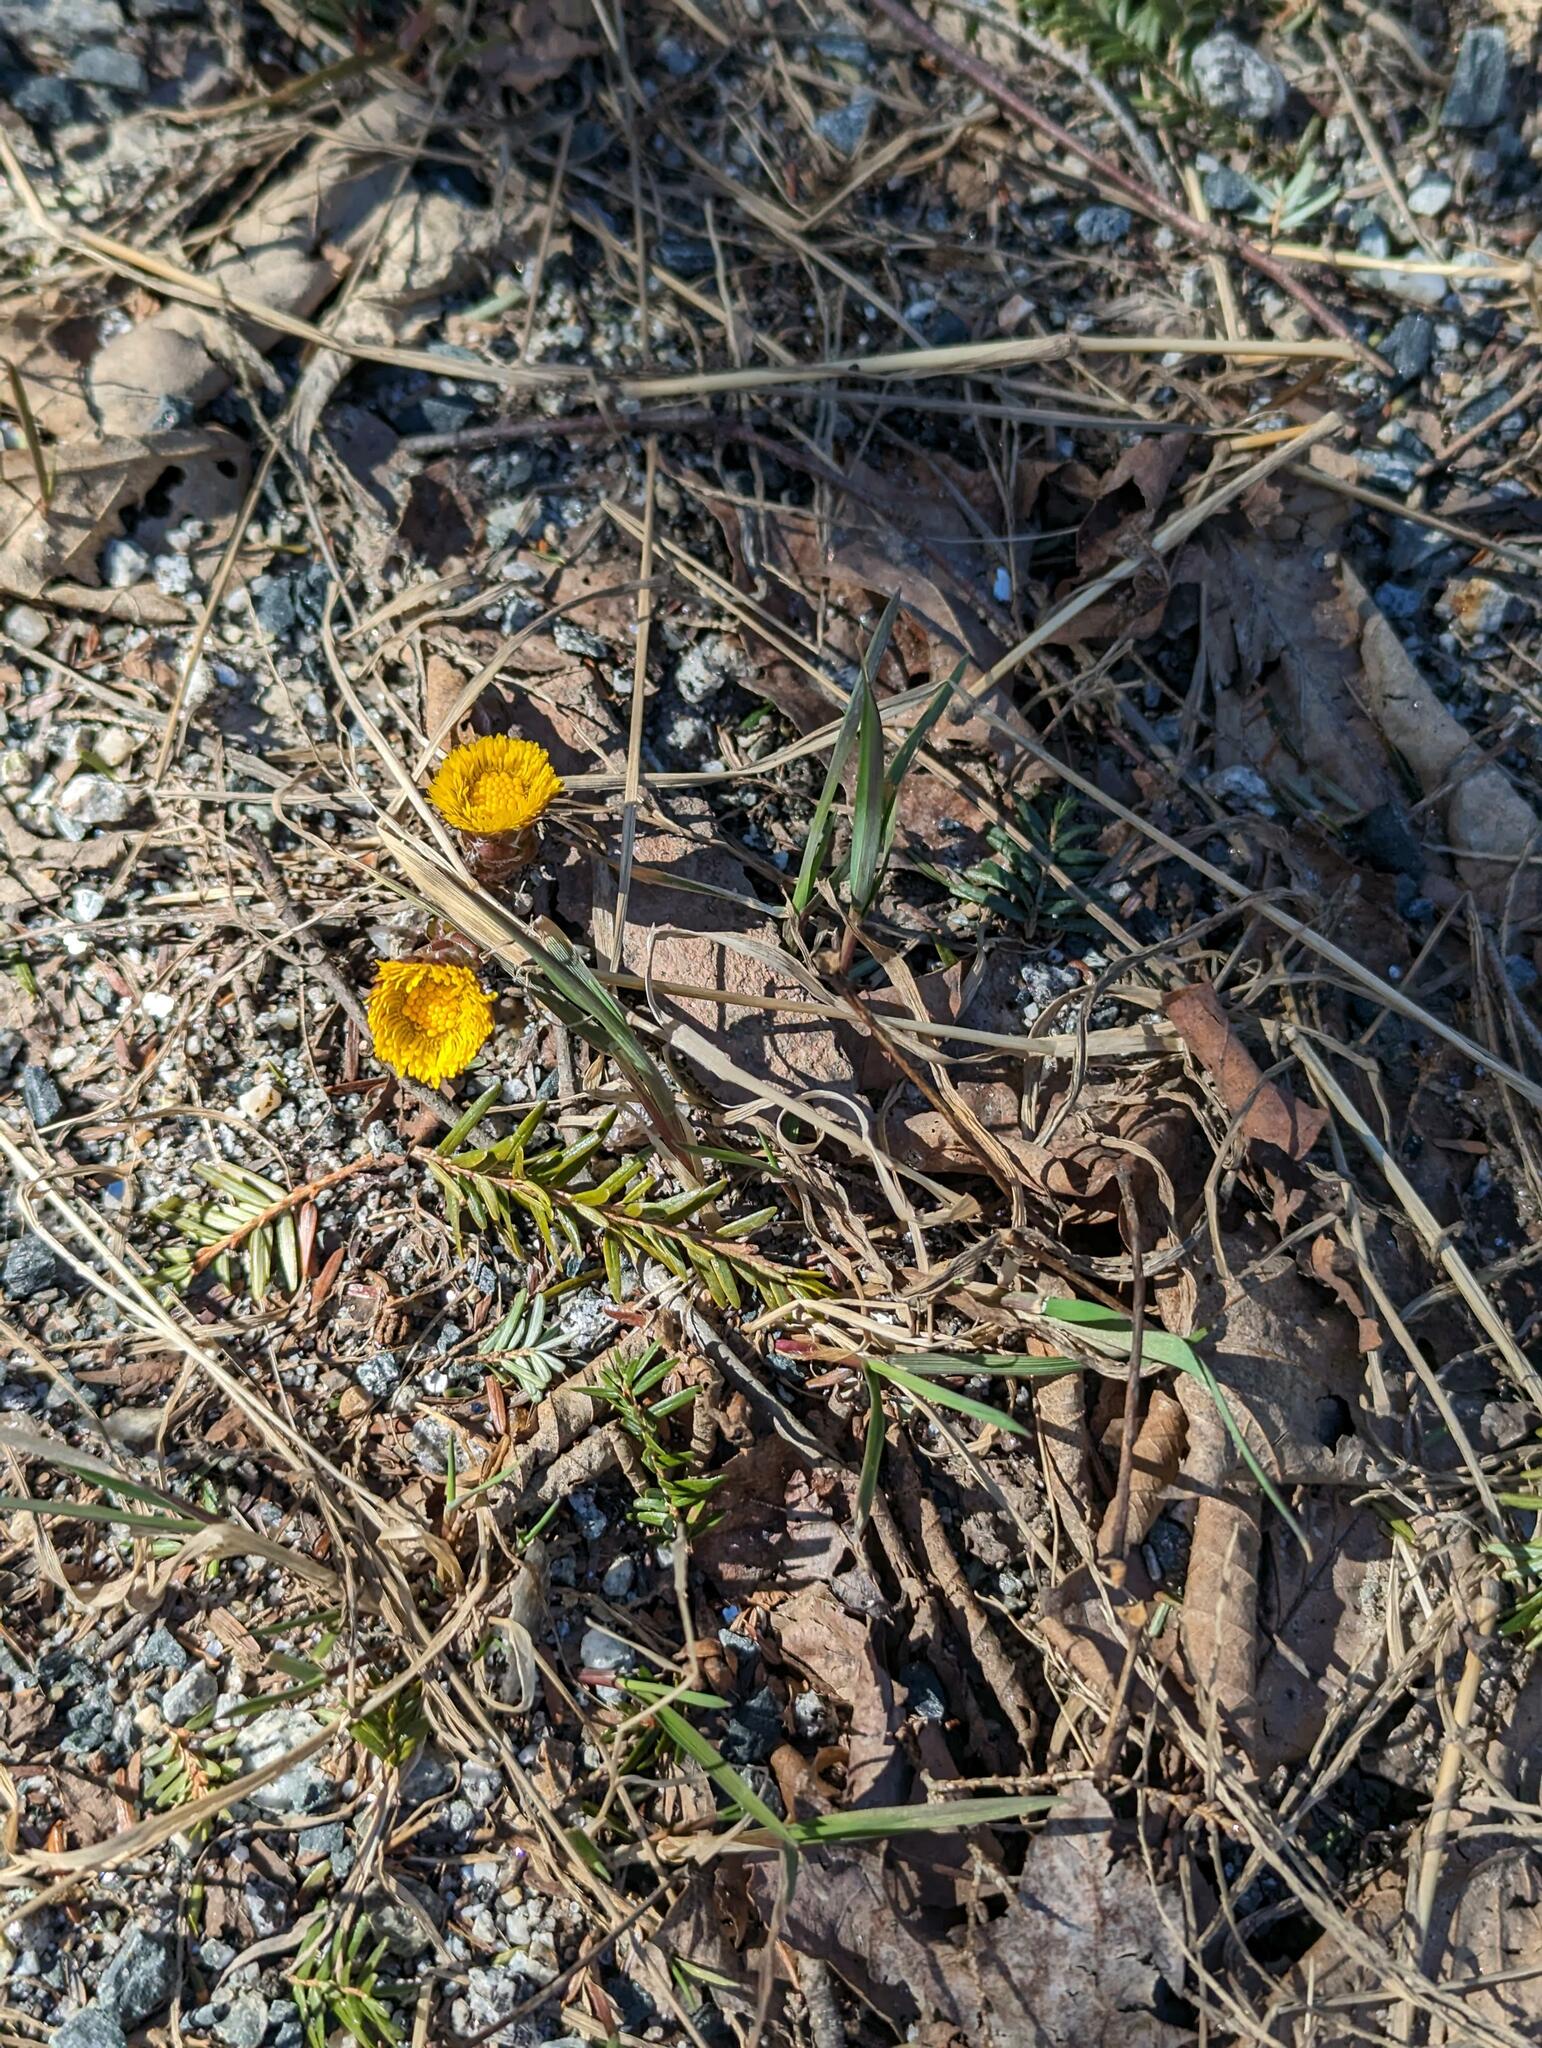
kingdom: Plantae
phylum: Tracheophyta
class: Magnoliopsida
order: Asterales
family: Asteraceae
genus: Tussilago
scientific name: Tussilago farfara
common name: Coltsfoot
